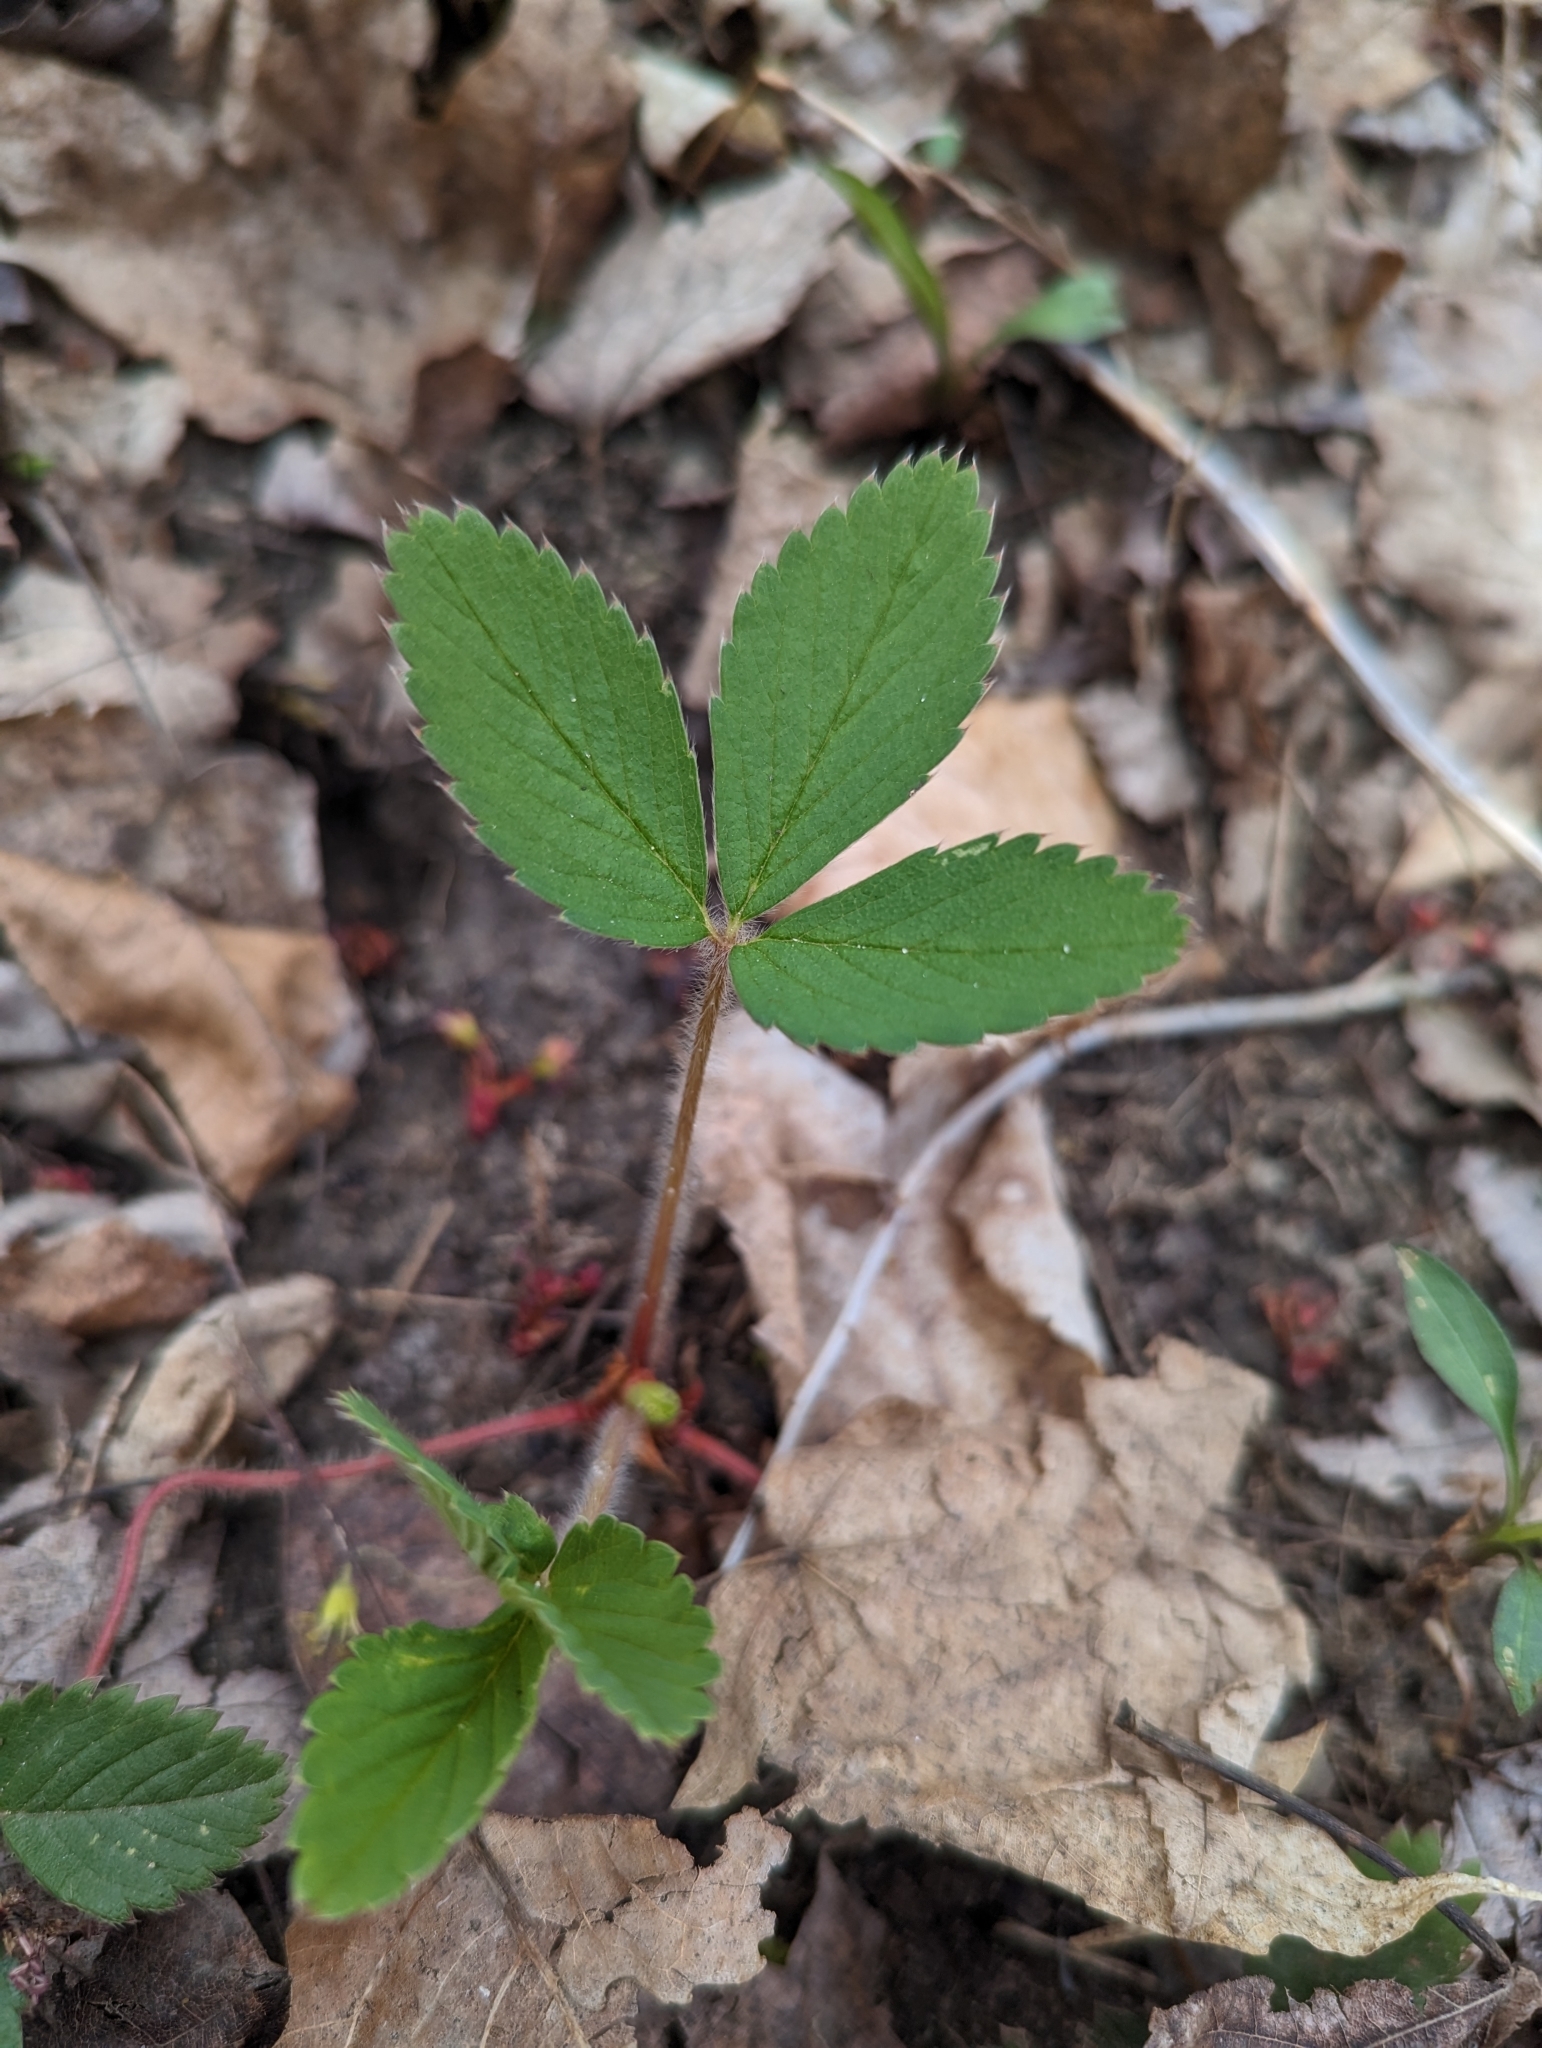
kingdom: Plantae
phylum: Tracheophyta
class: Magnoliopsida
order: Rosales
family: Rosaceae
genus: Fragaria
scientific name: Fragaria virginiana
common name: Thickleaved wild strawberry
